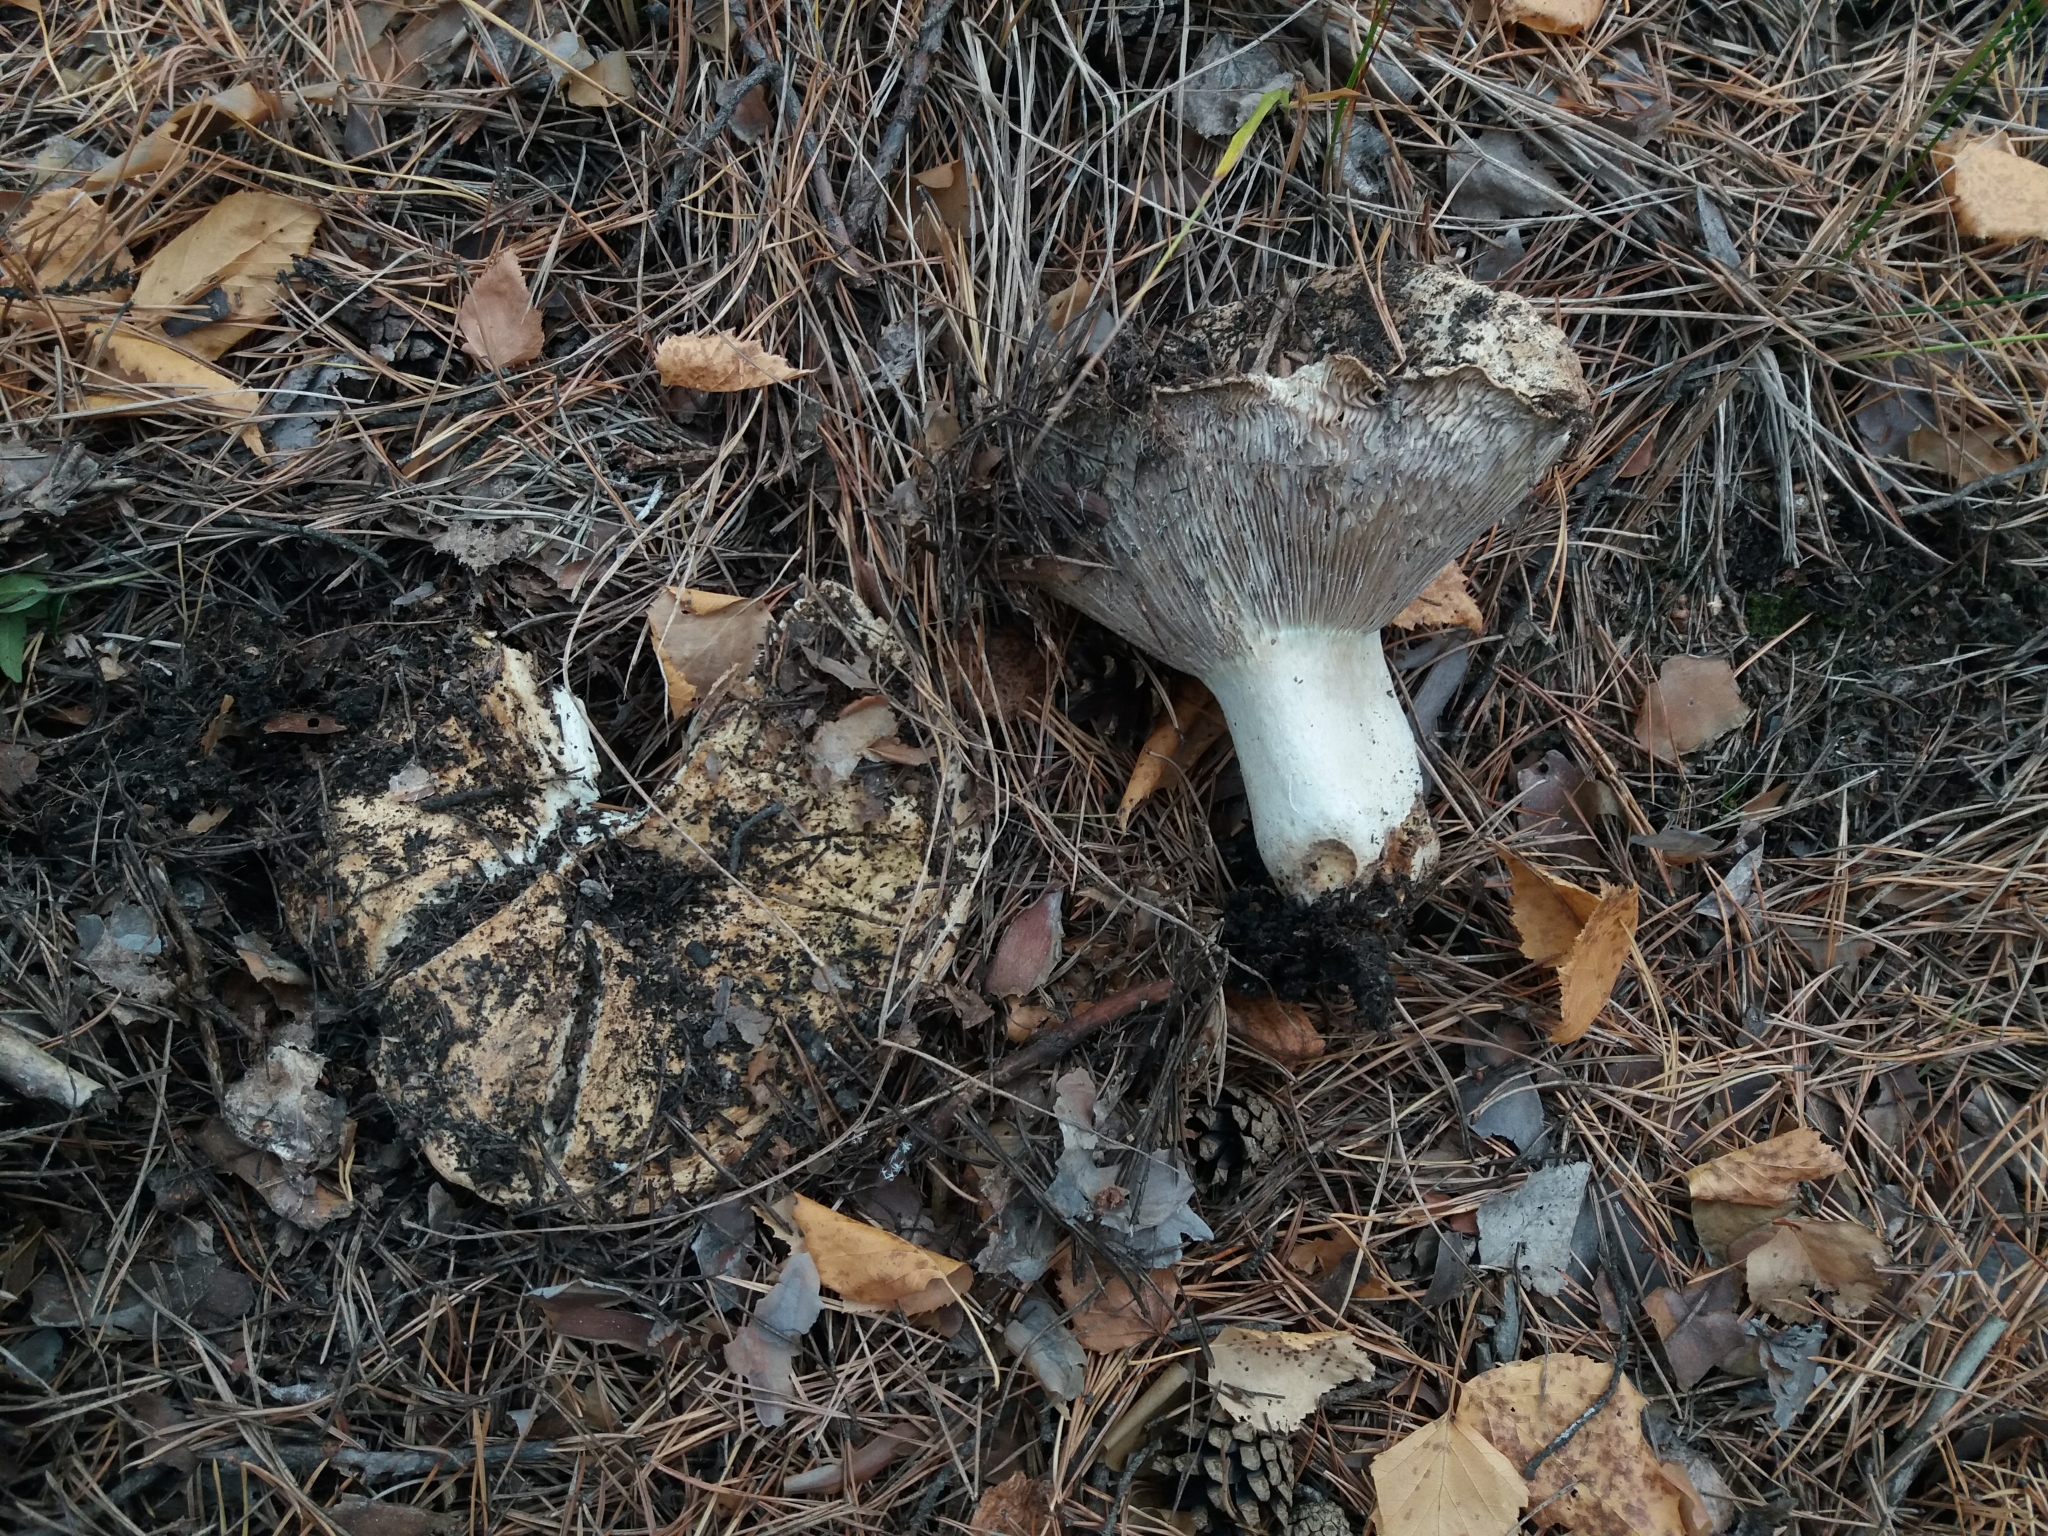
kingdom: Fungi
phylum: Basidiomycota
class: Agaricomycetes
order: Russulales
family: Russulaceae
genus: Russula
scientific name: Russula delica
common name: Milk white brittlegill
